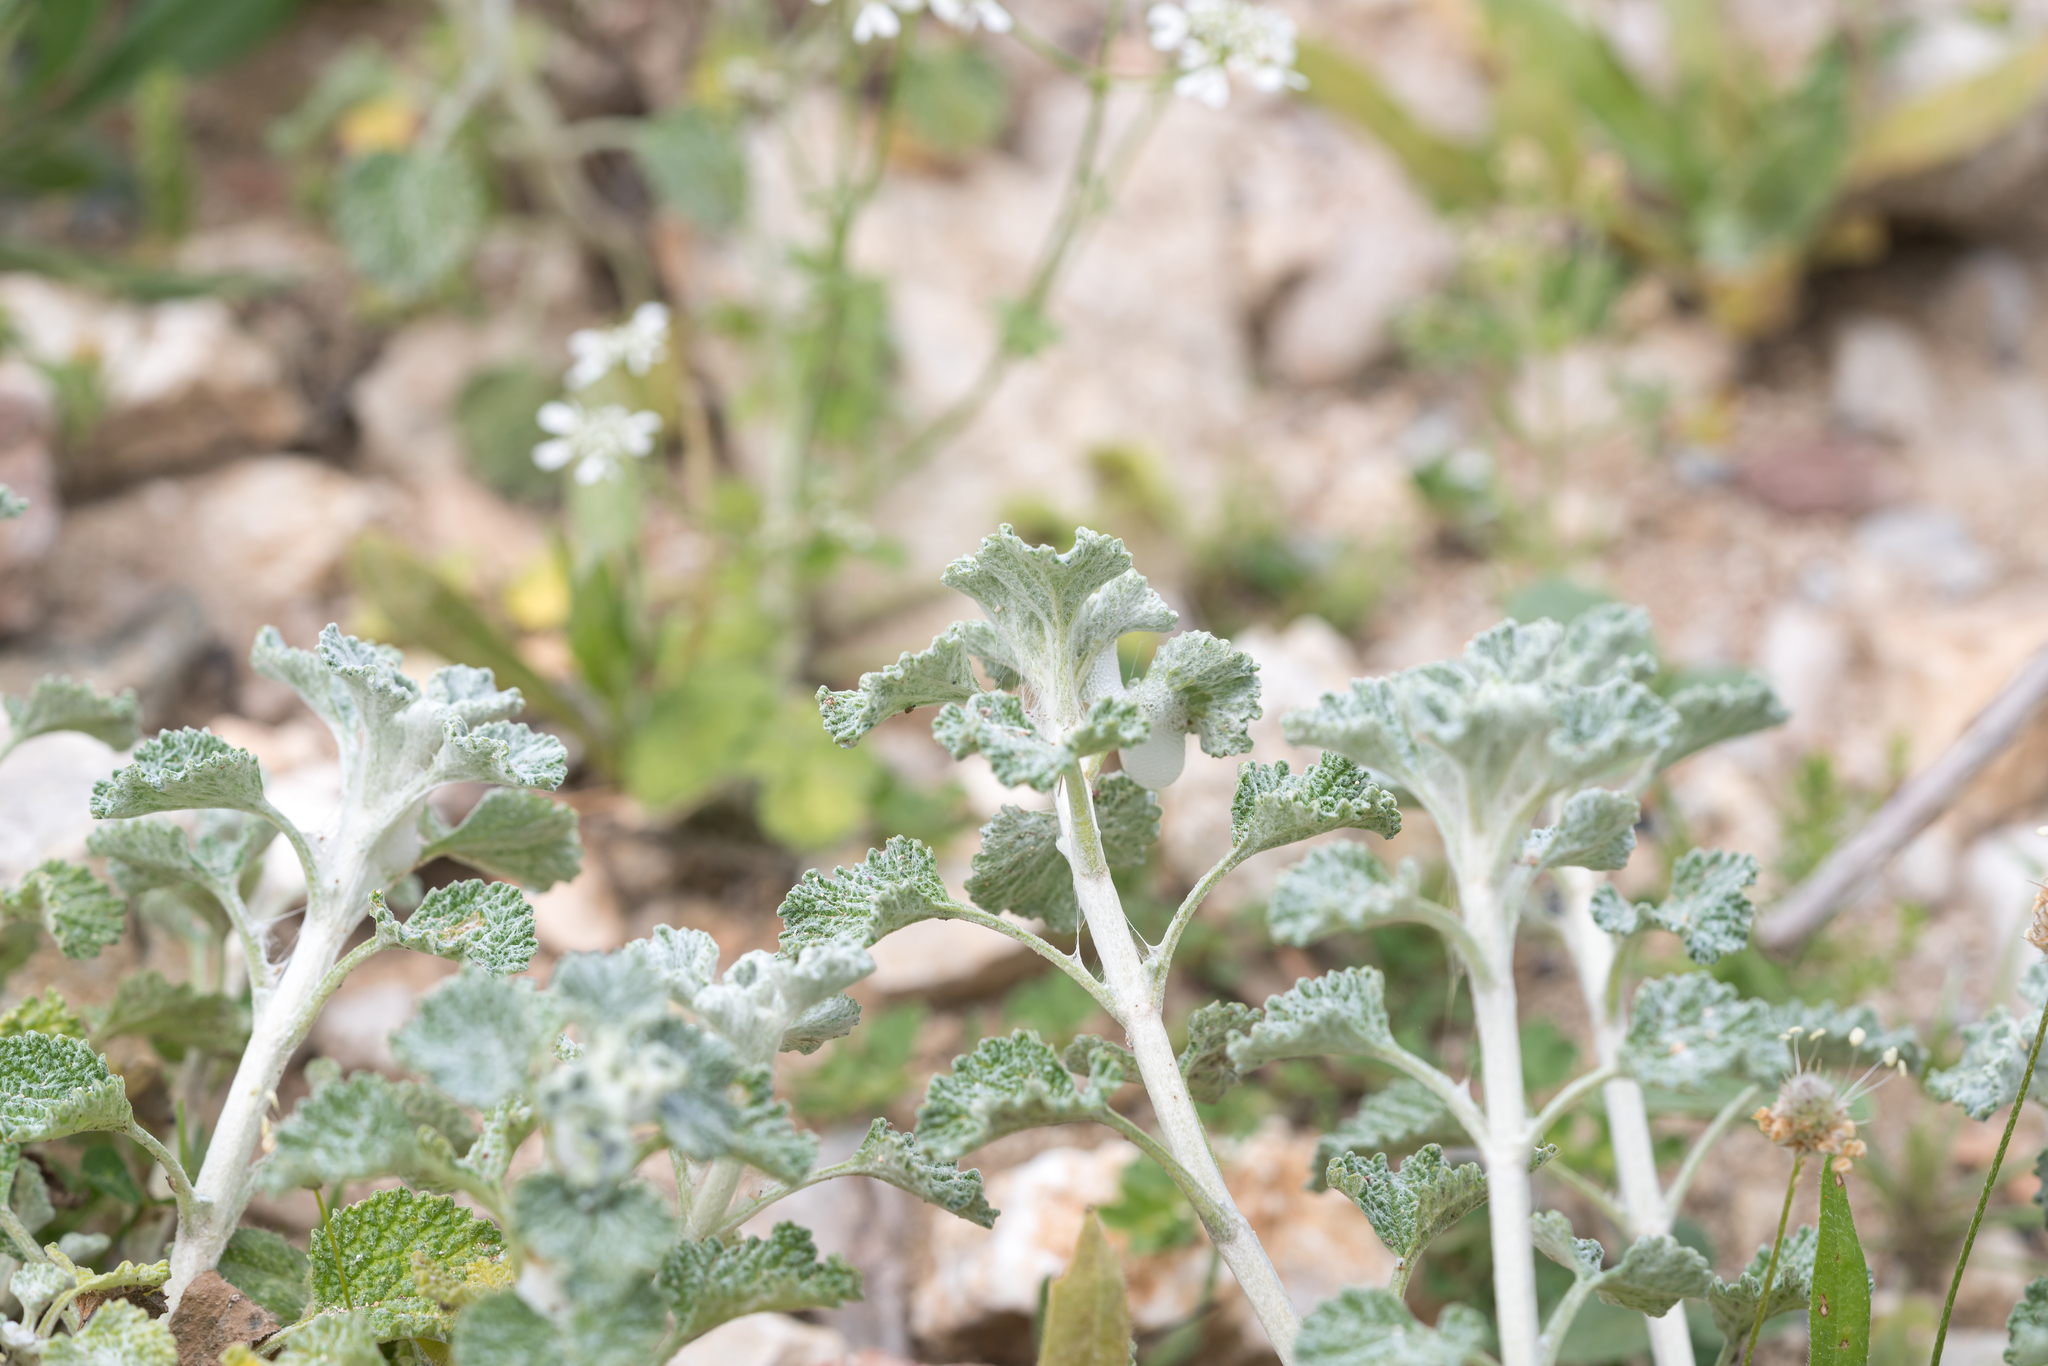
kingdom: Plantae
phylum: Tracheophyta
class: Magnoliopsida
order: Lamiales
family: Lamiaceae
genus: Marrubium
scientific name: Marrubium vulgare
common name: Horehound
